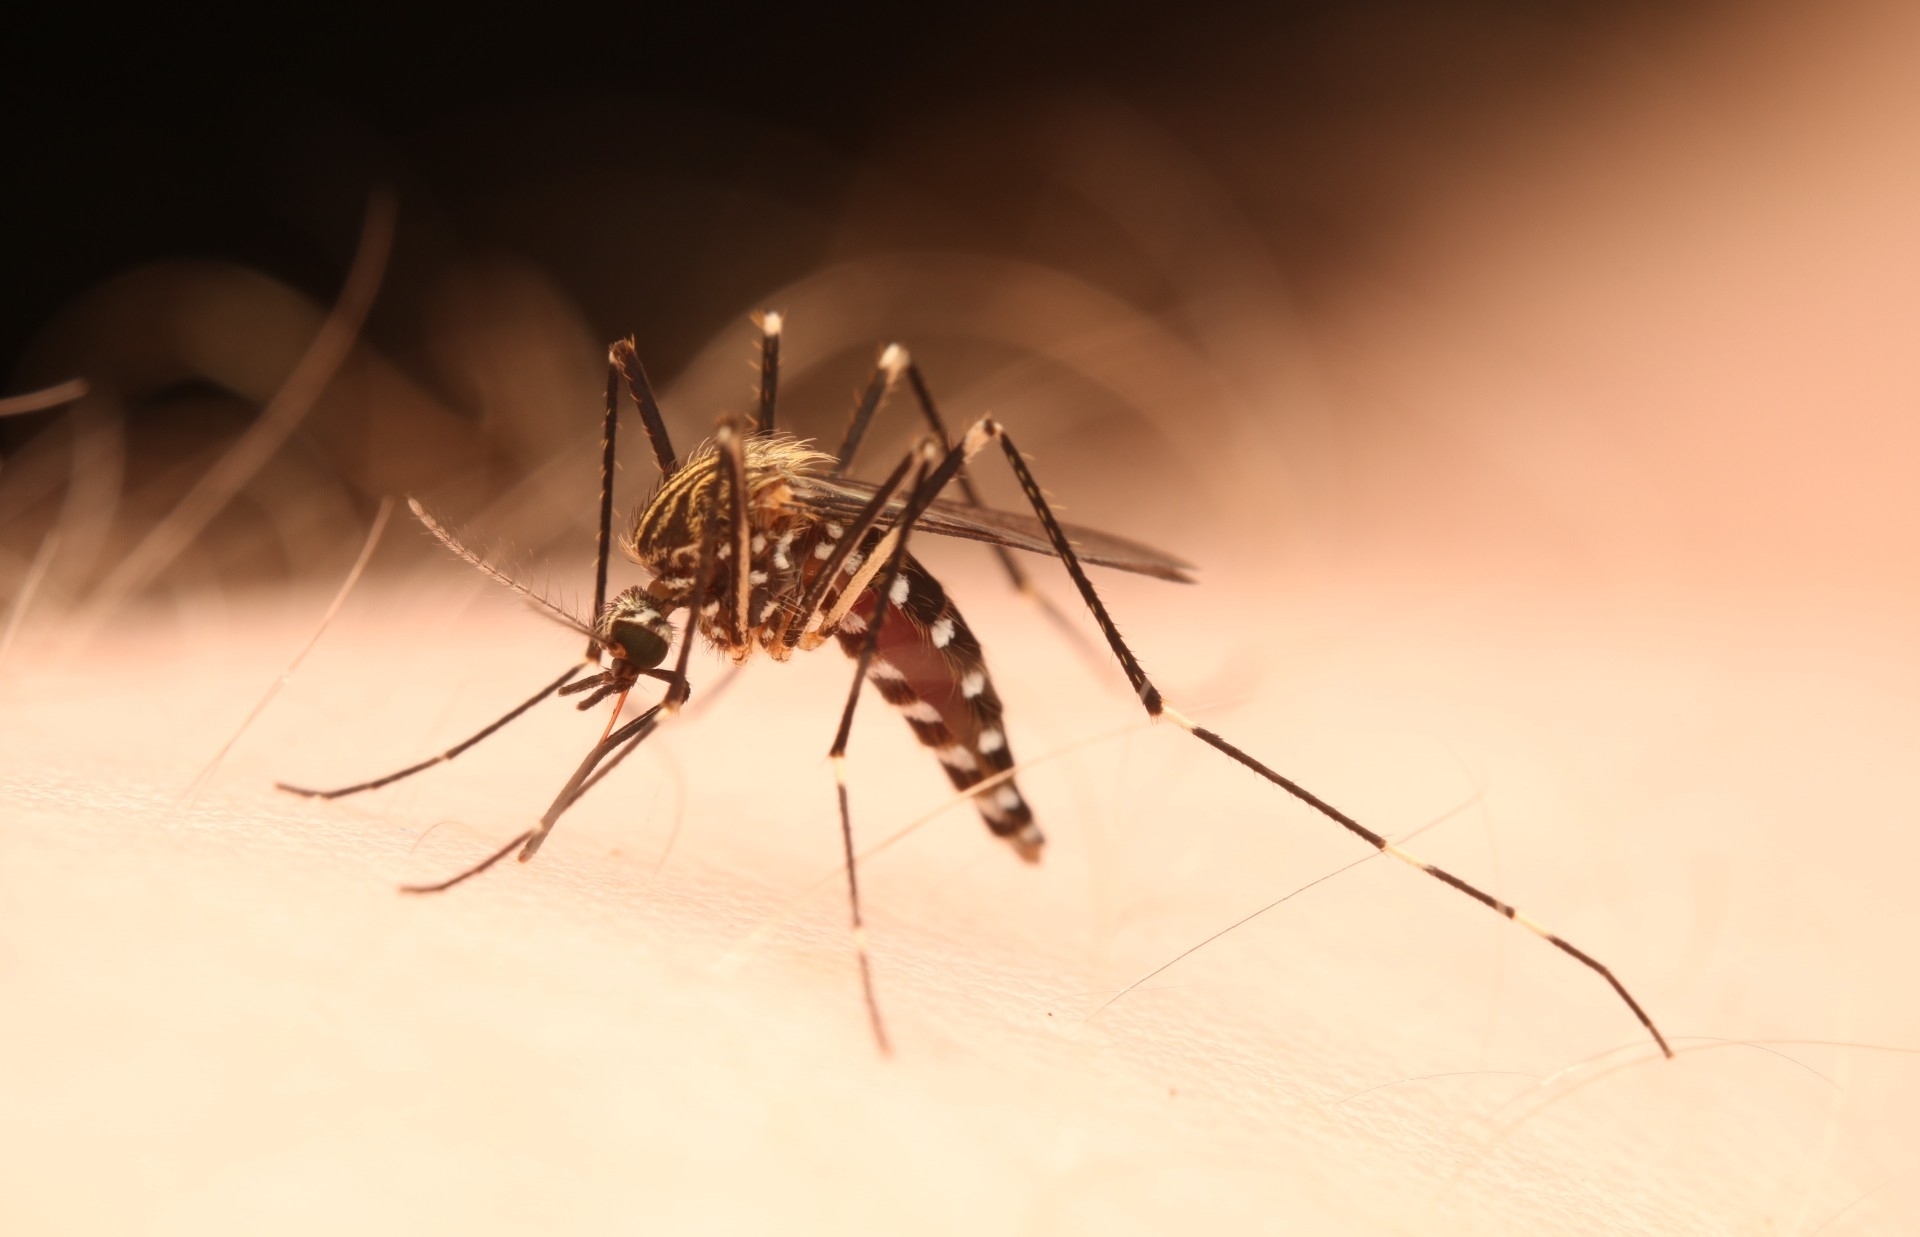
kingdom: Animalia
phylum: Arthropoda
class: Insecta
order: Diptera
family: Culicidae
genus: Aedes
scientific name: Aedes japonicus
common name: Asian bush mosquito
